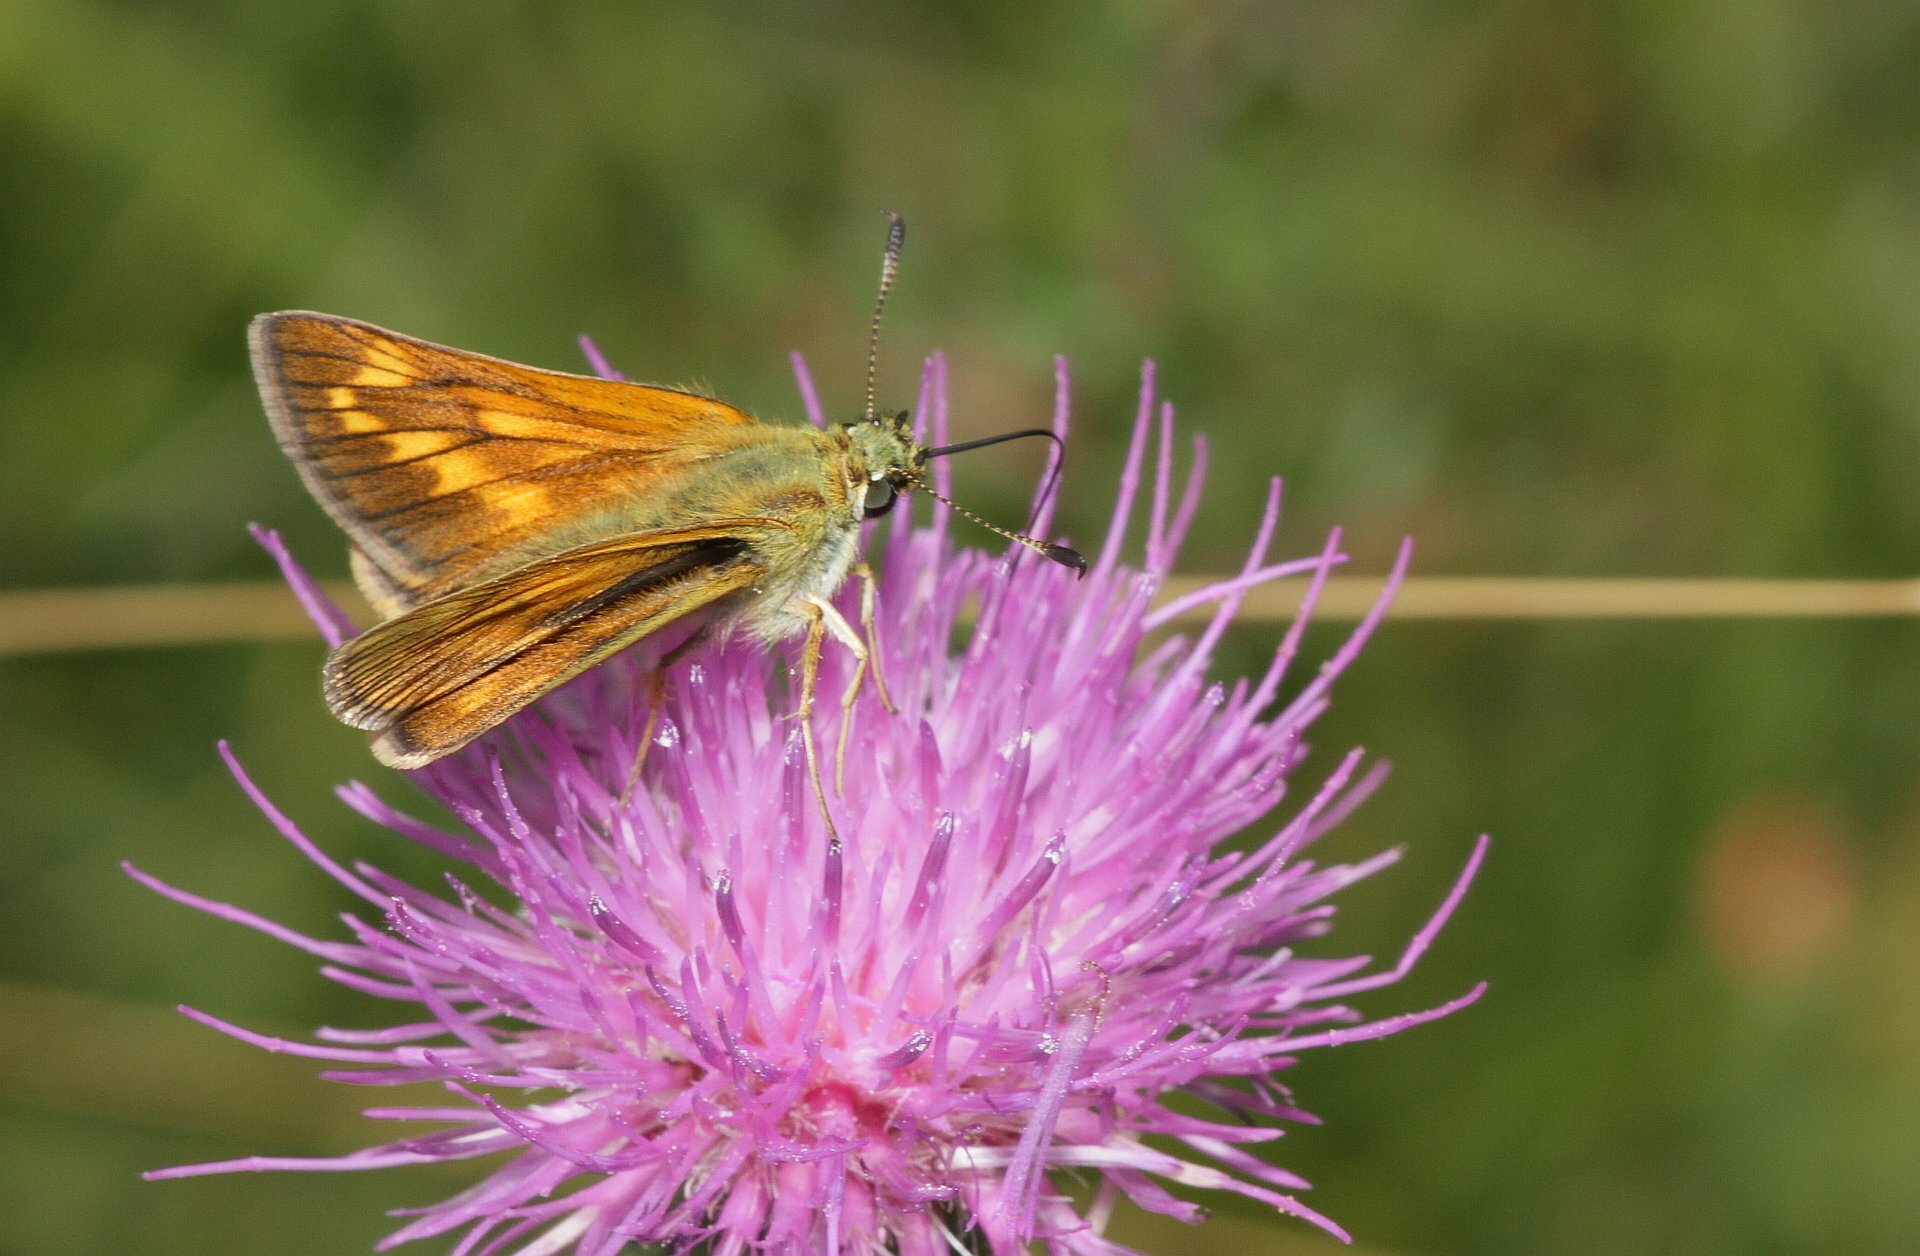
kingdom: Animalia
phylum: Arthropoda
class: Insecta
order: Lepidoptera
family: Hesperiidae
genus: Ochlodes
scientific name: Ochlodes venata
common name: Large skipper
